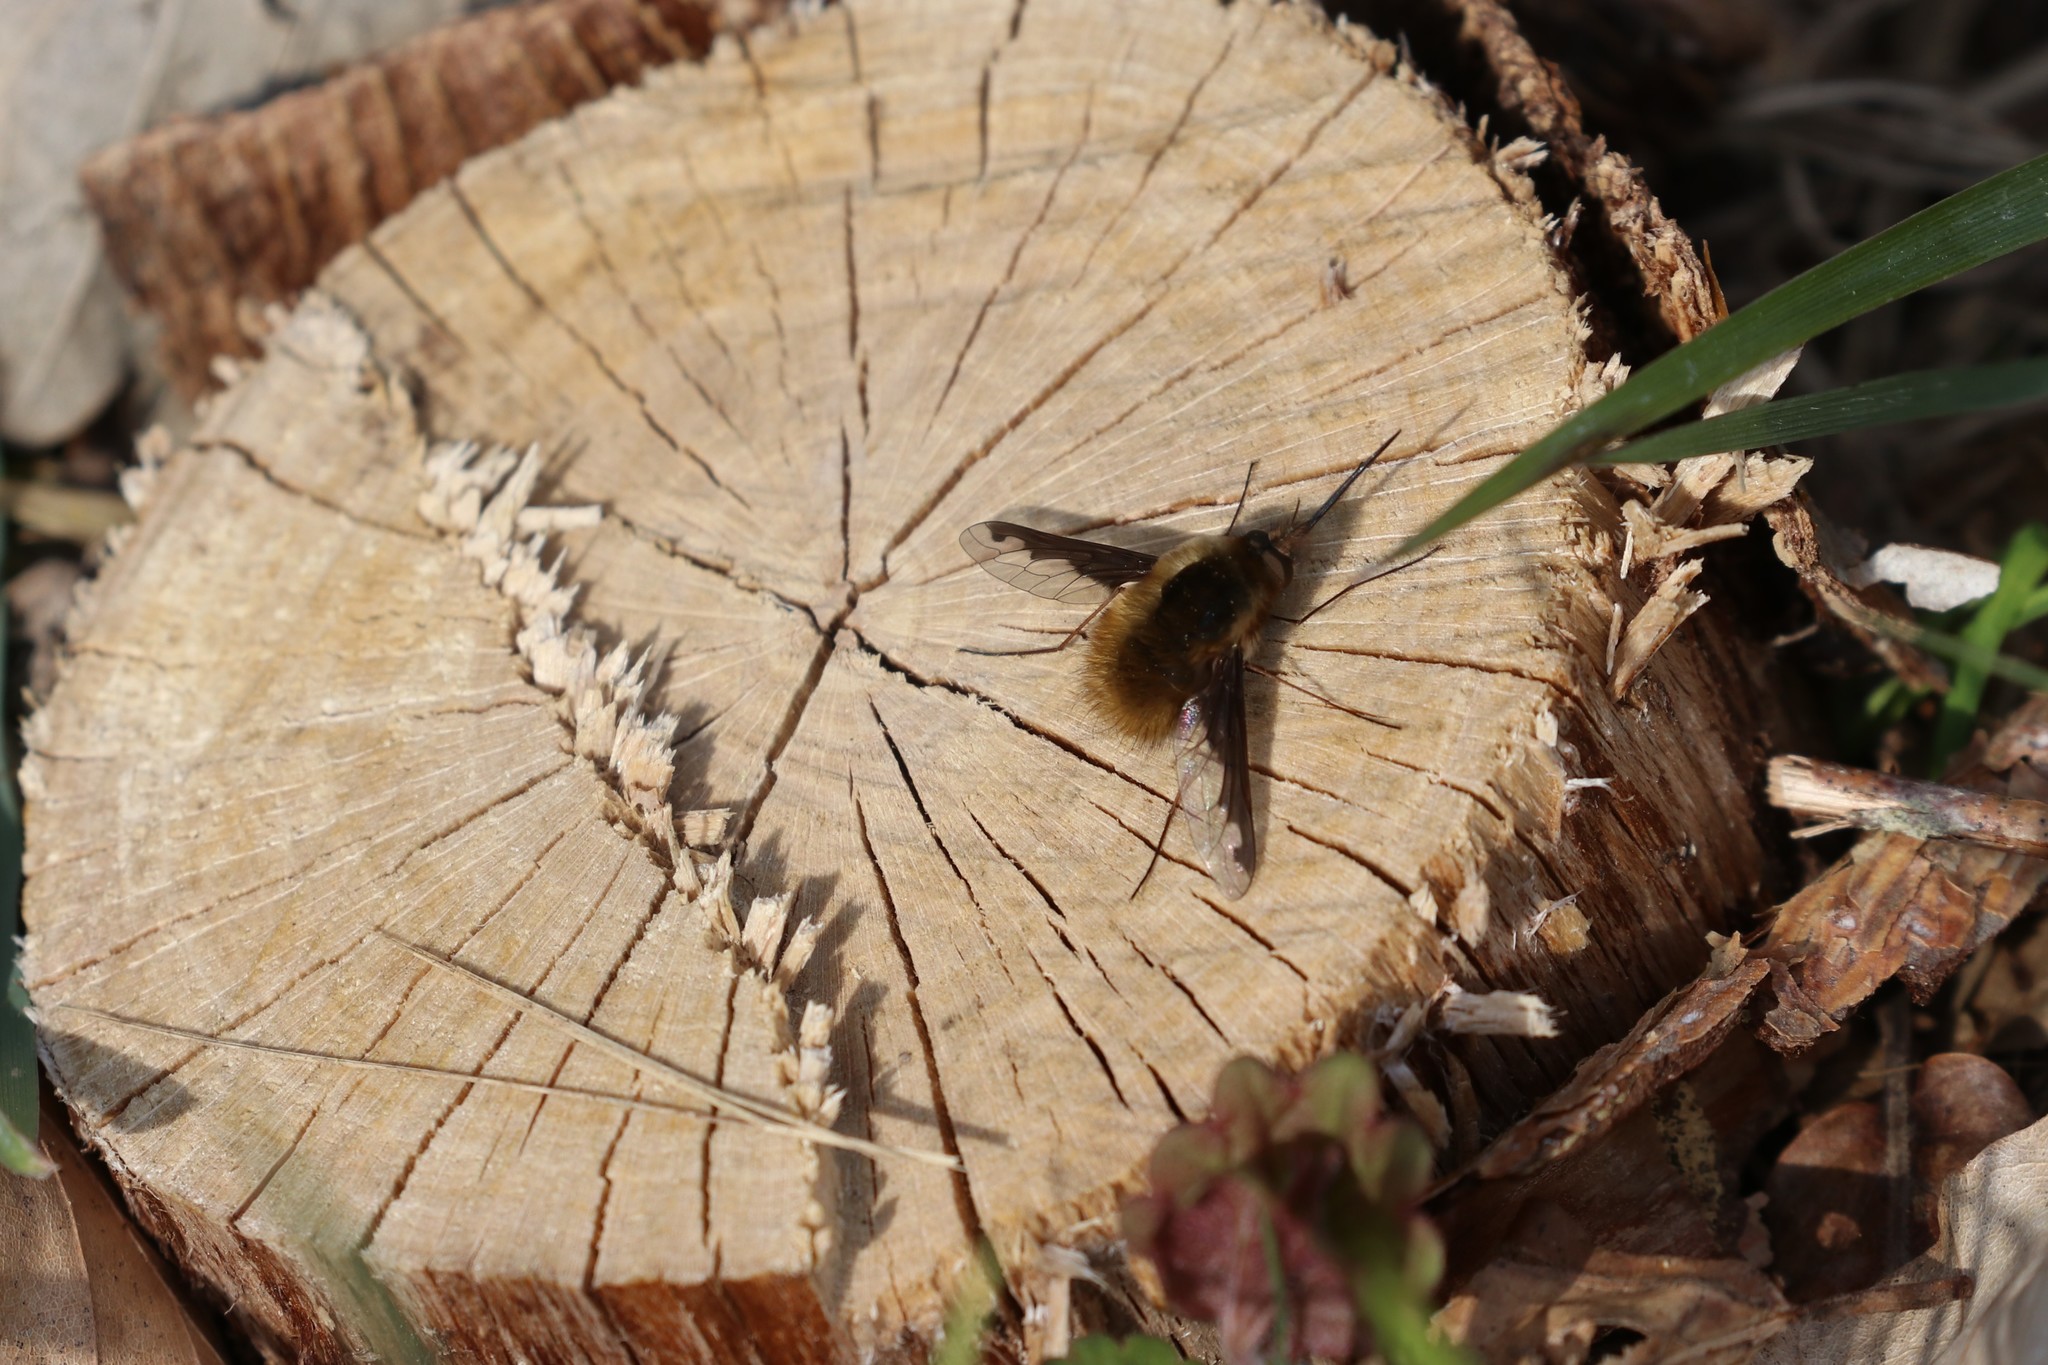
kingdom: Animalia
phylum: Arthropoda
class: Insecta
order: Diptera
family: Bombyliidae
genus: Bombylius
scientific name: Bombylius major
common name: Bee fly
